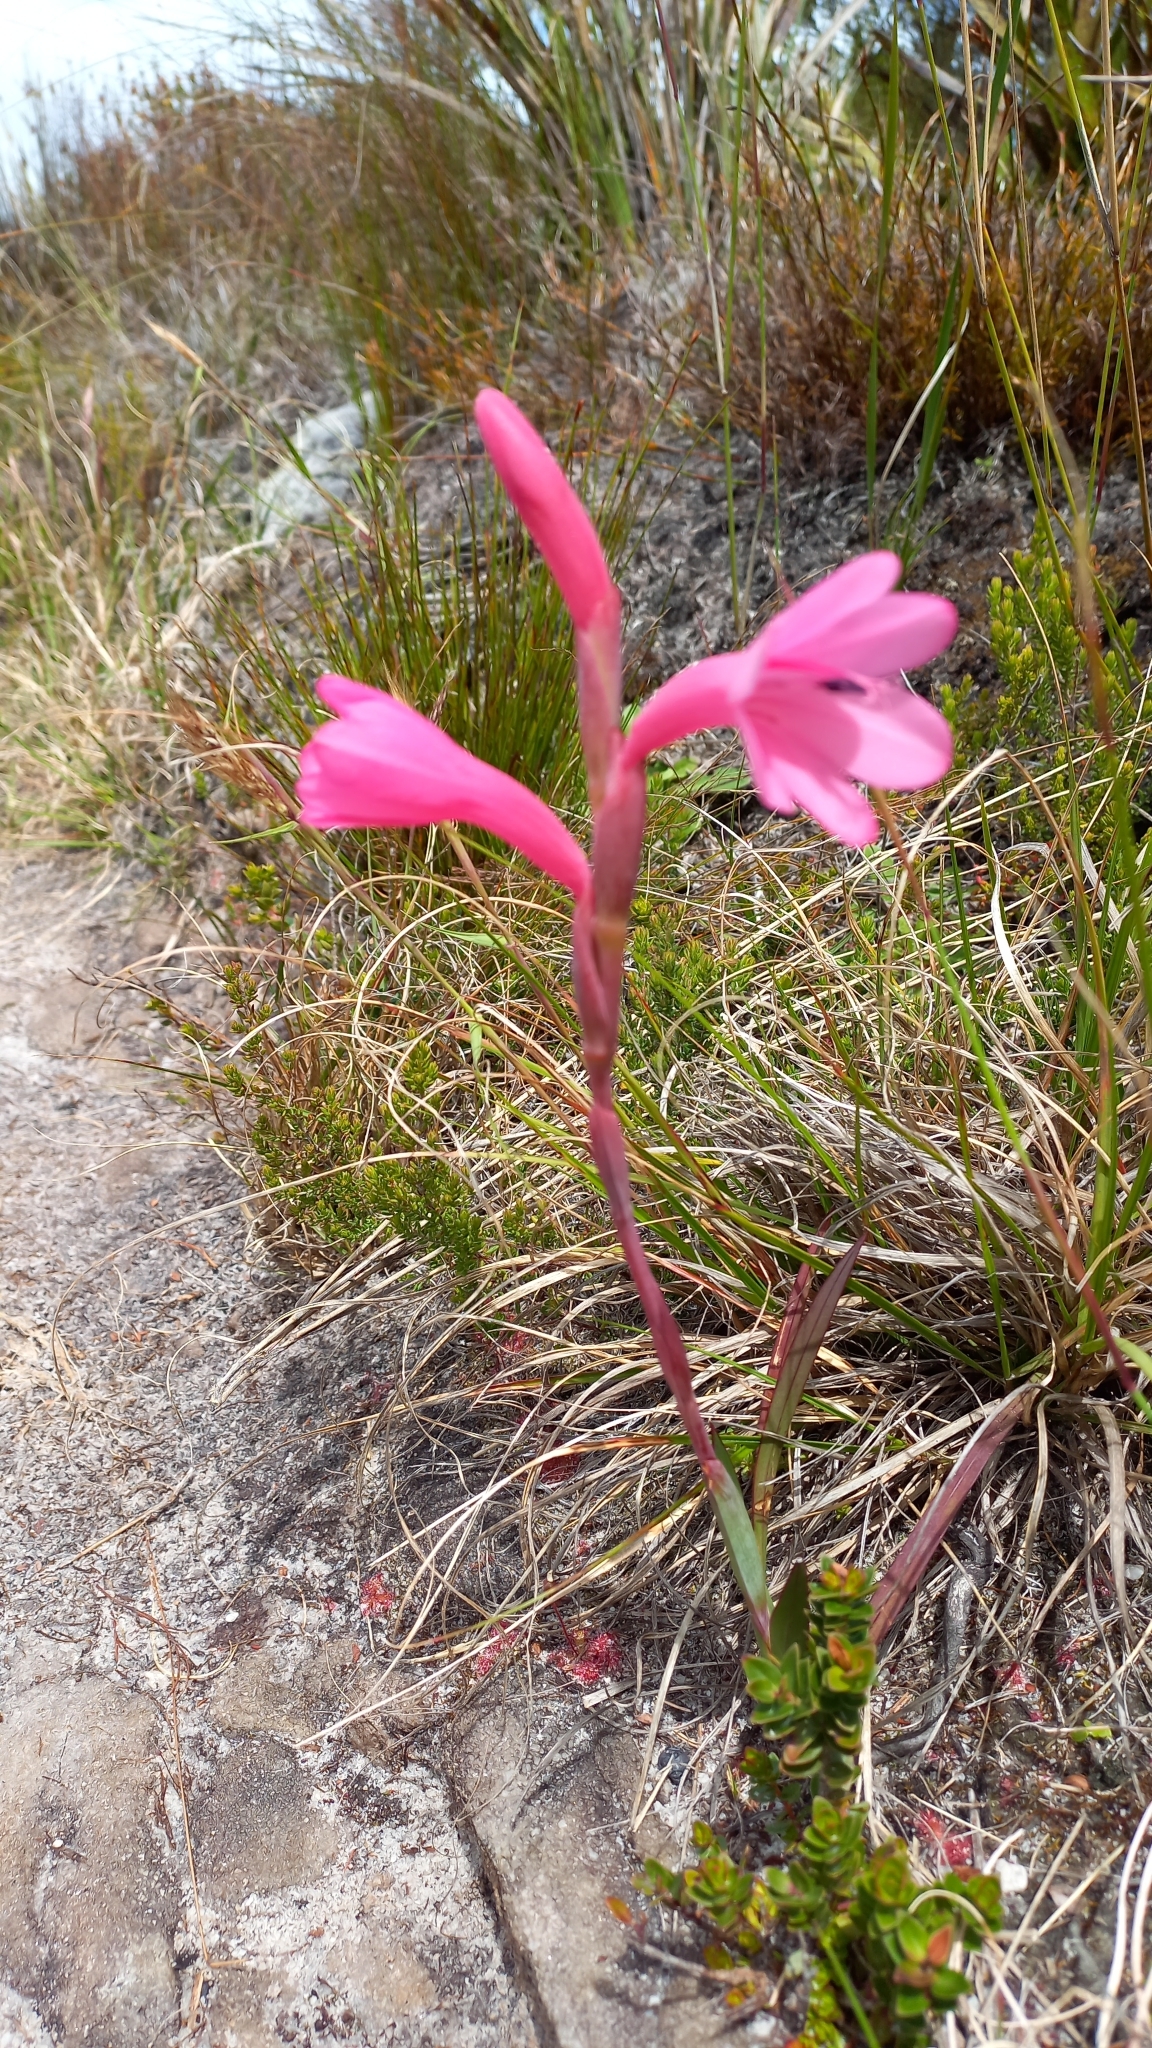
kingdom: Plantae
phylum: Tracheophyta
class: Liliopsida
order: Asparagales
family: Iridaceae
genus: Watsonia
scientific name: Watsonia coccinea
